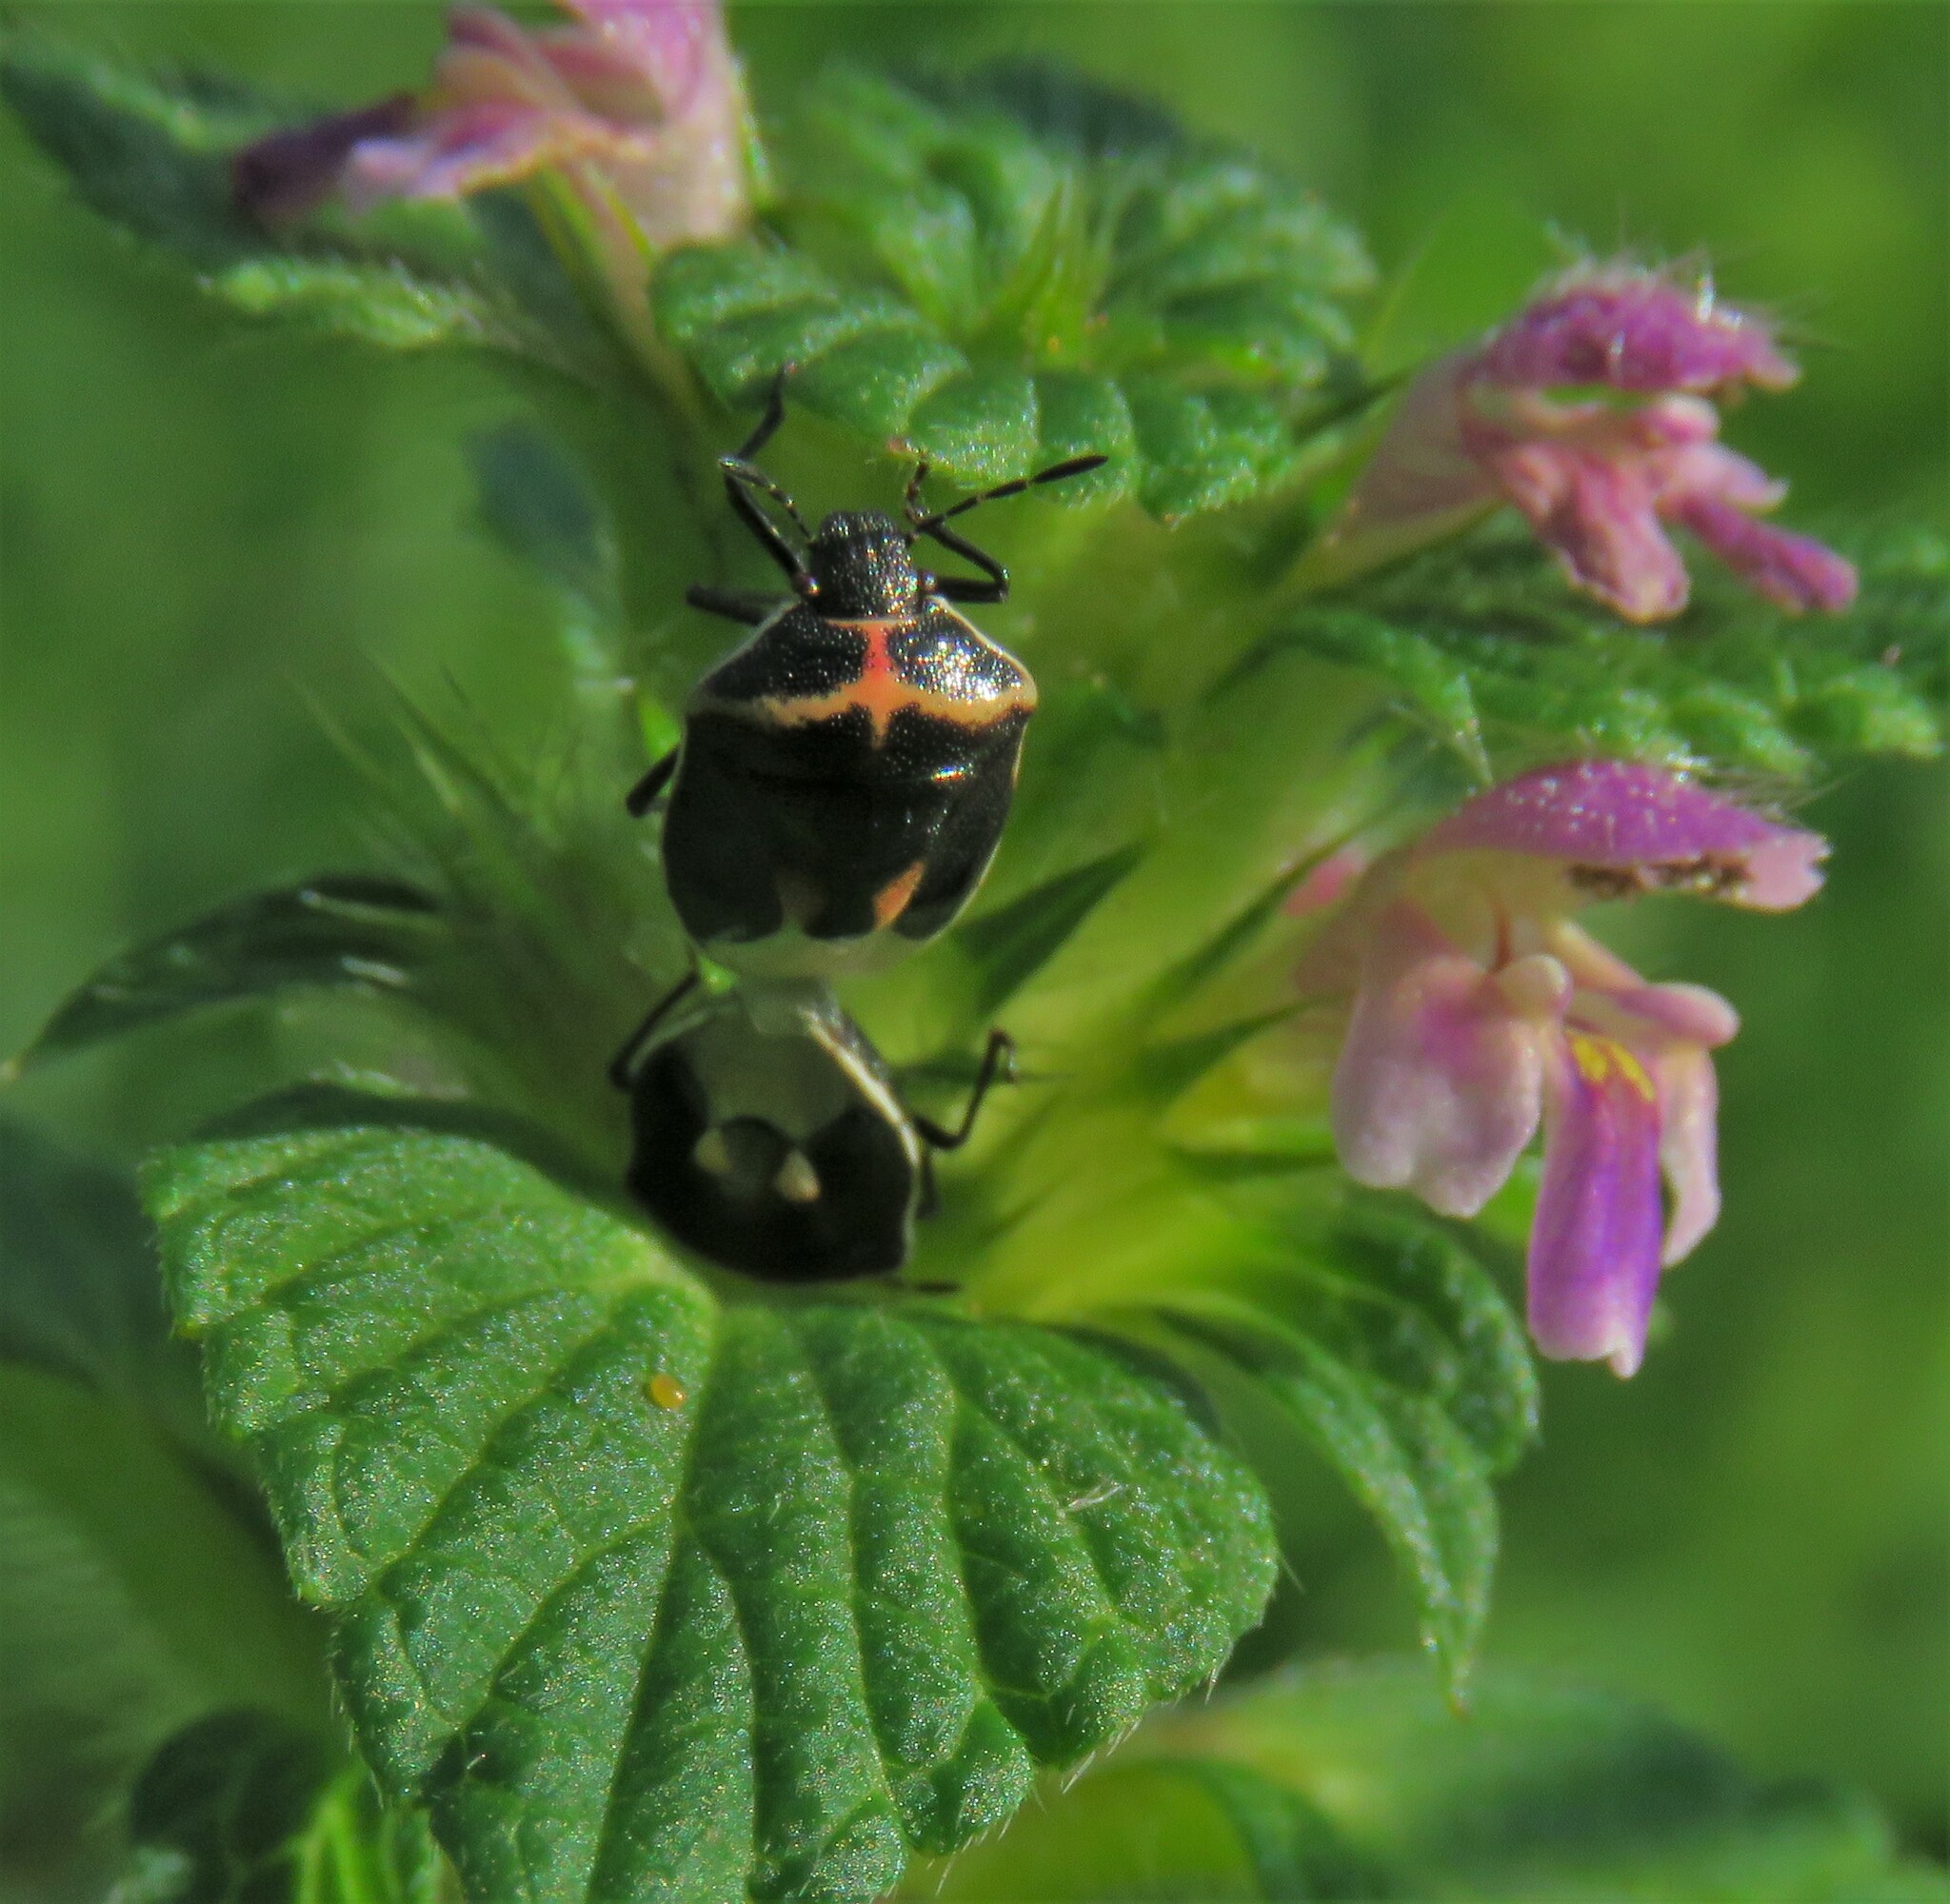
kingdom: Animalia
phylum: Arthropoda
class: Insecta
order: Hemiptera
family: Pentatomidae
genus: Cosmopepla
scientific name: Cosmopepla lintneriana
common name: Twice-stabbed stink bug
